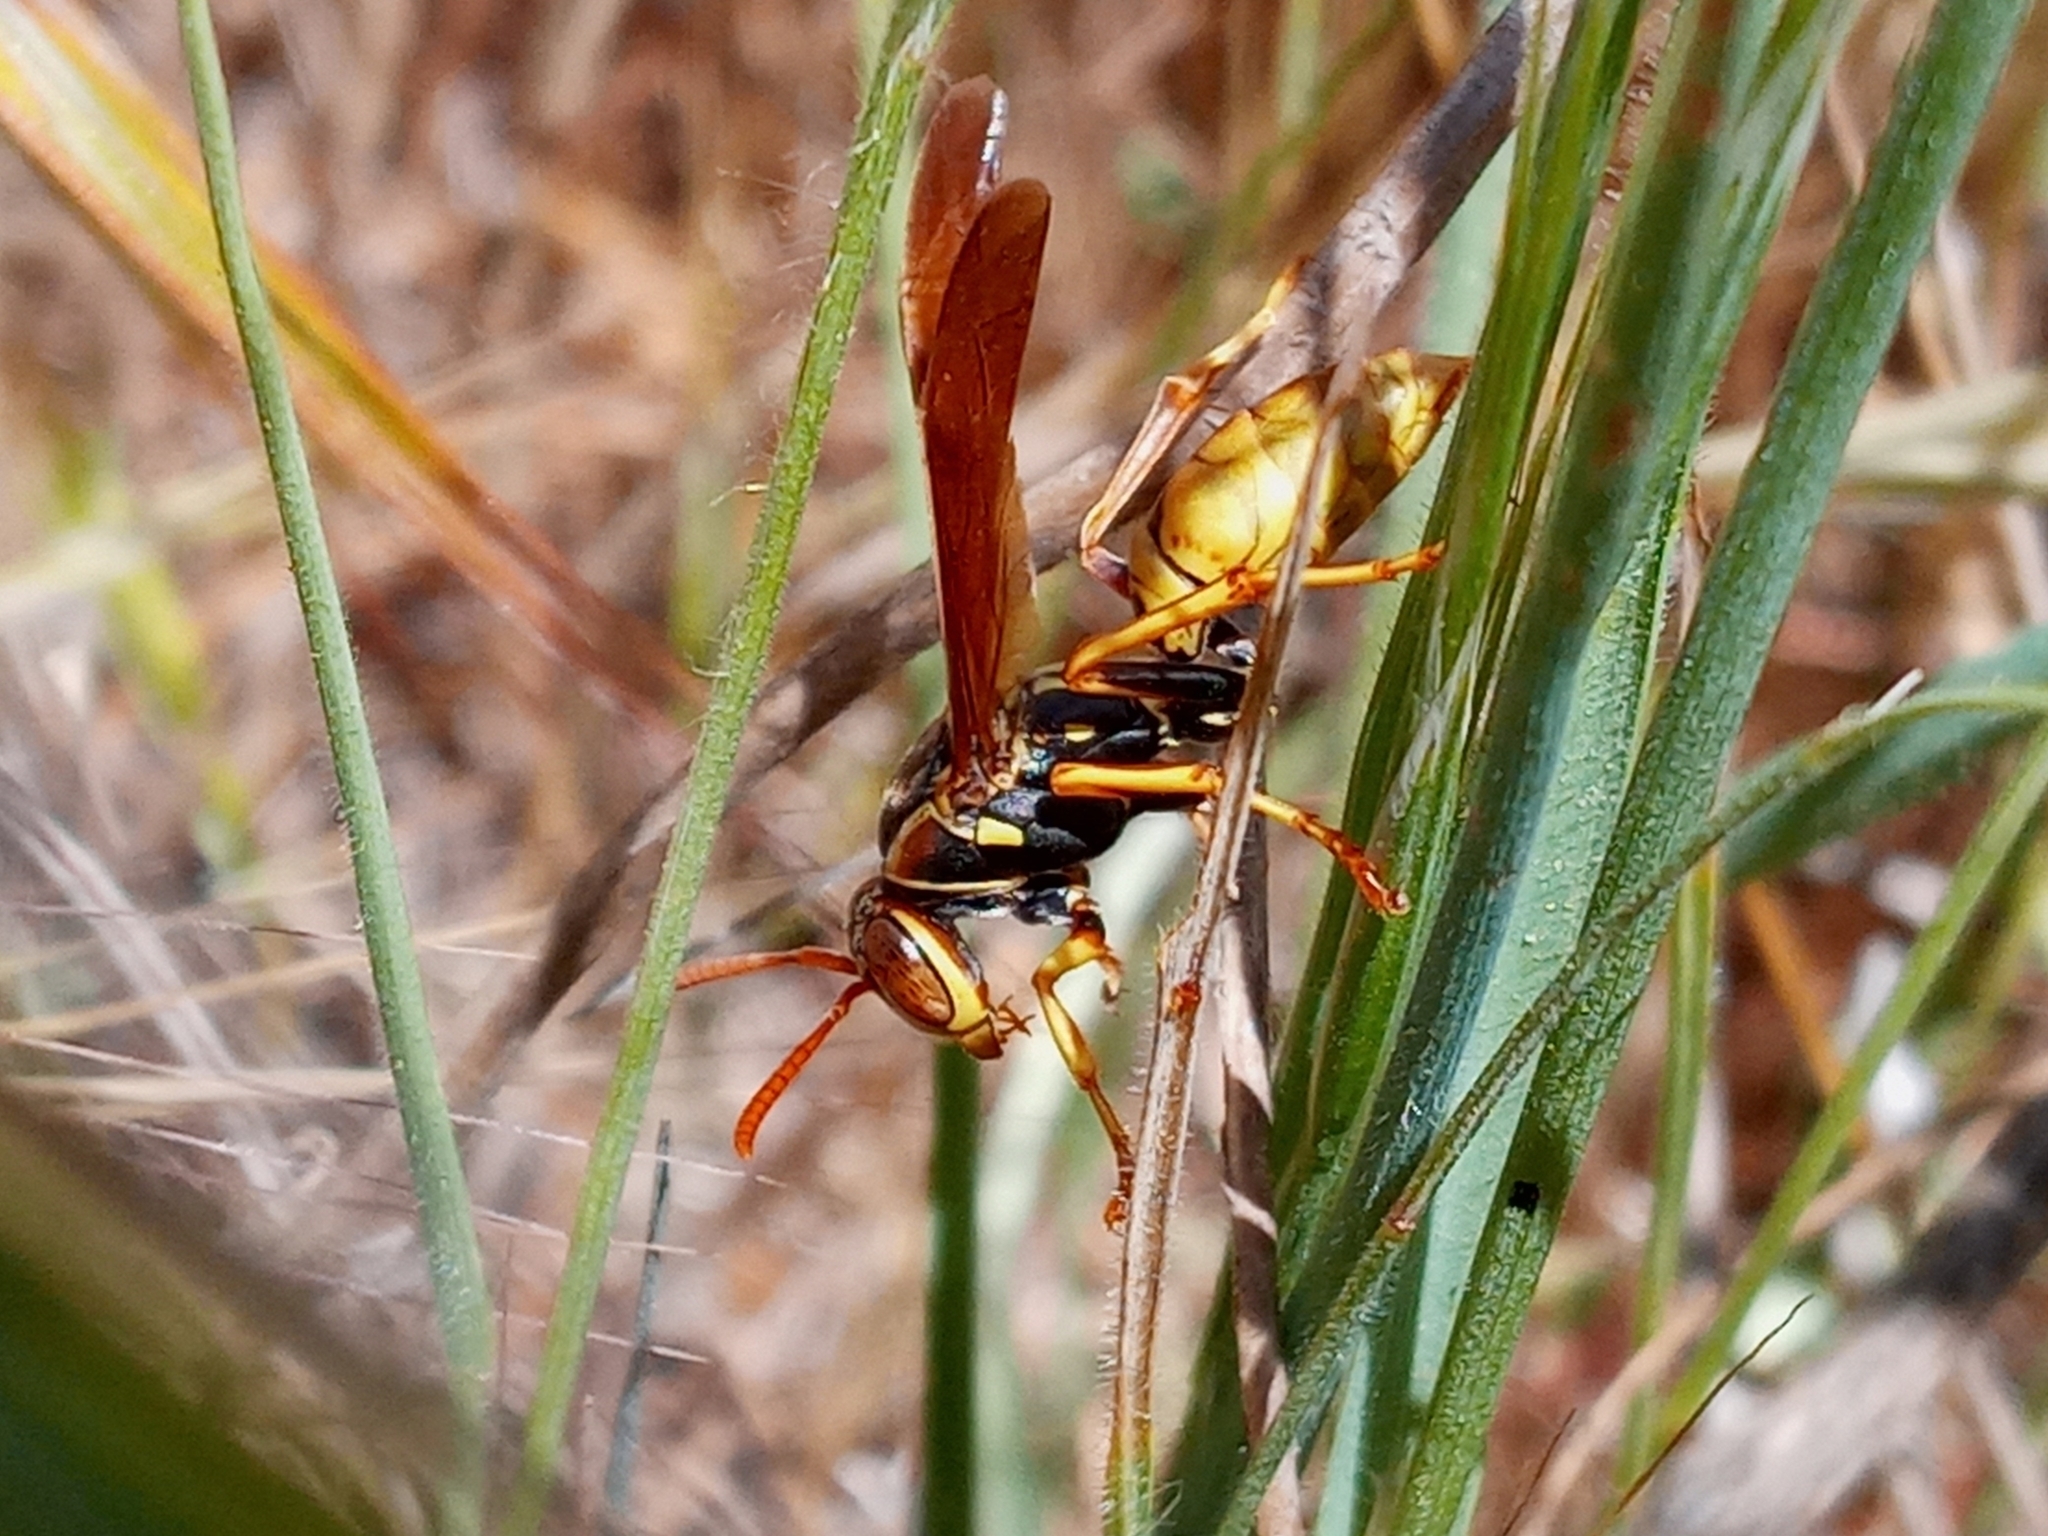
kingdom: Animalia
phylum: Arthropoda
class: Insecta
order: Hymenoptera
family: Eumenidae
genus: Polistes
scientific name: Polistes aurifer
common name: Paper wasp
